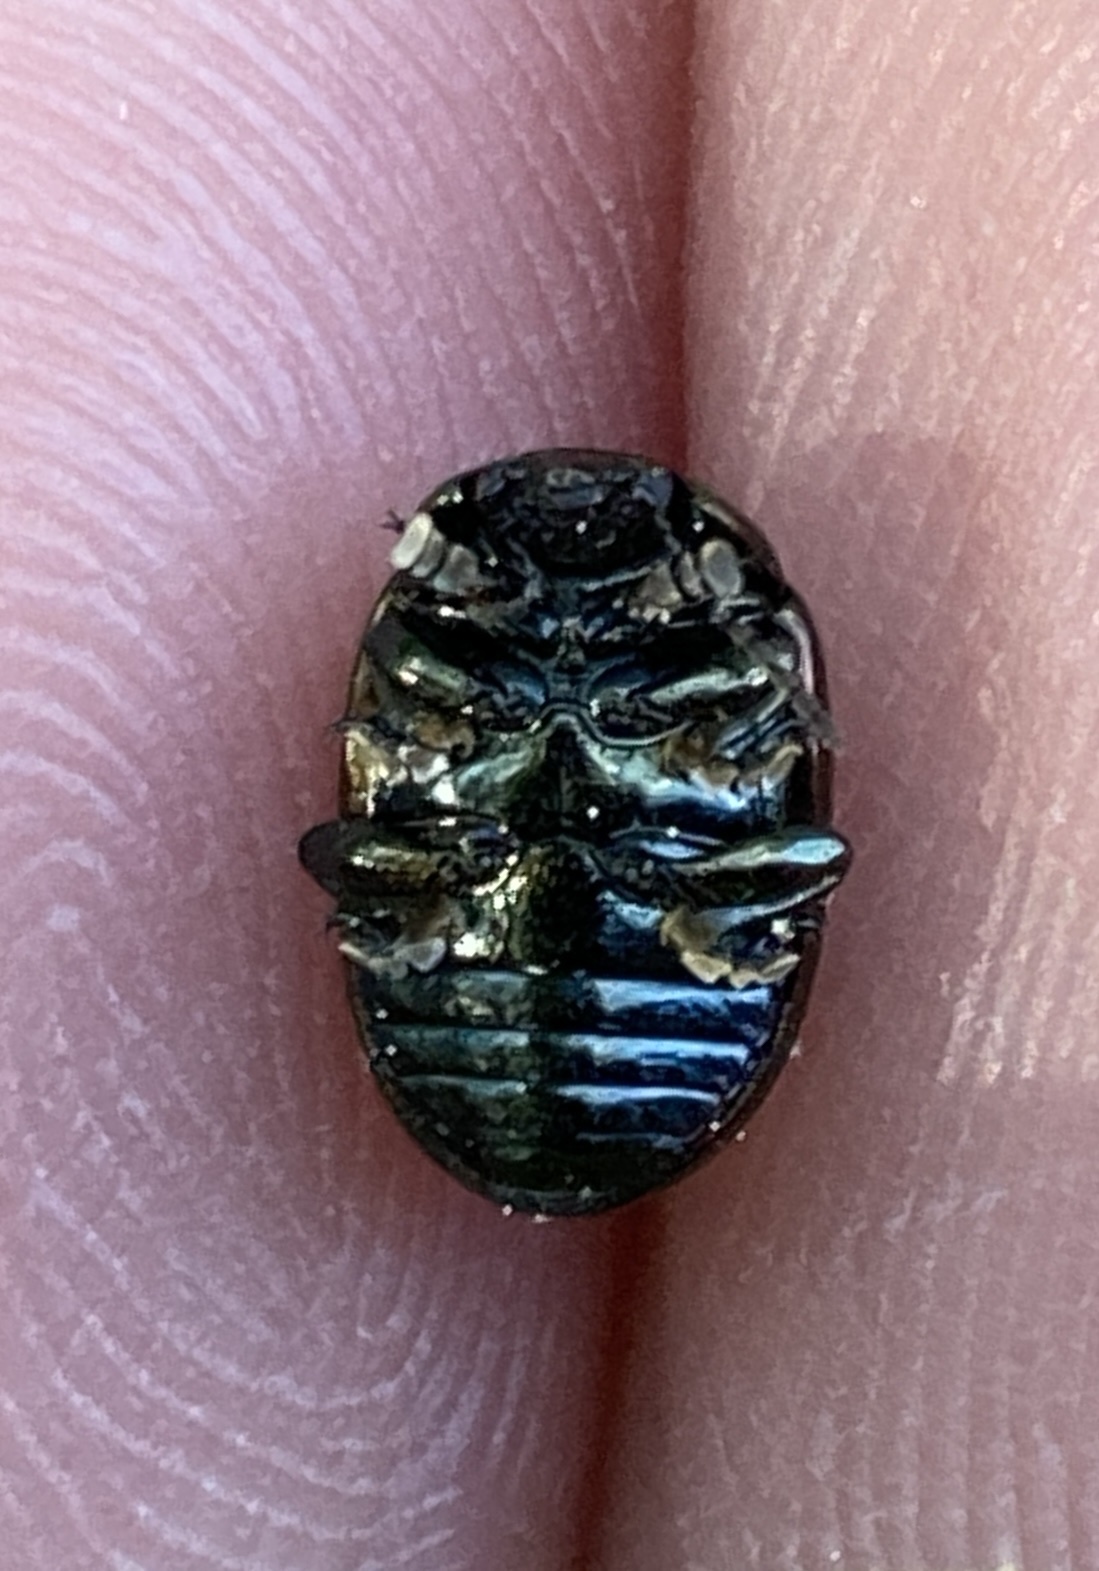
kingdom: Animalia
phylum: Arthropoda
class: Insecta
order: Coleoptera
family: Chrysomelidae
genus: Chrysolina
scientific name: Chrysolina hyperici
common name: St. johnswort beetle
